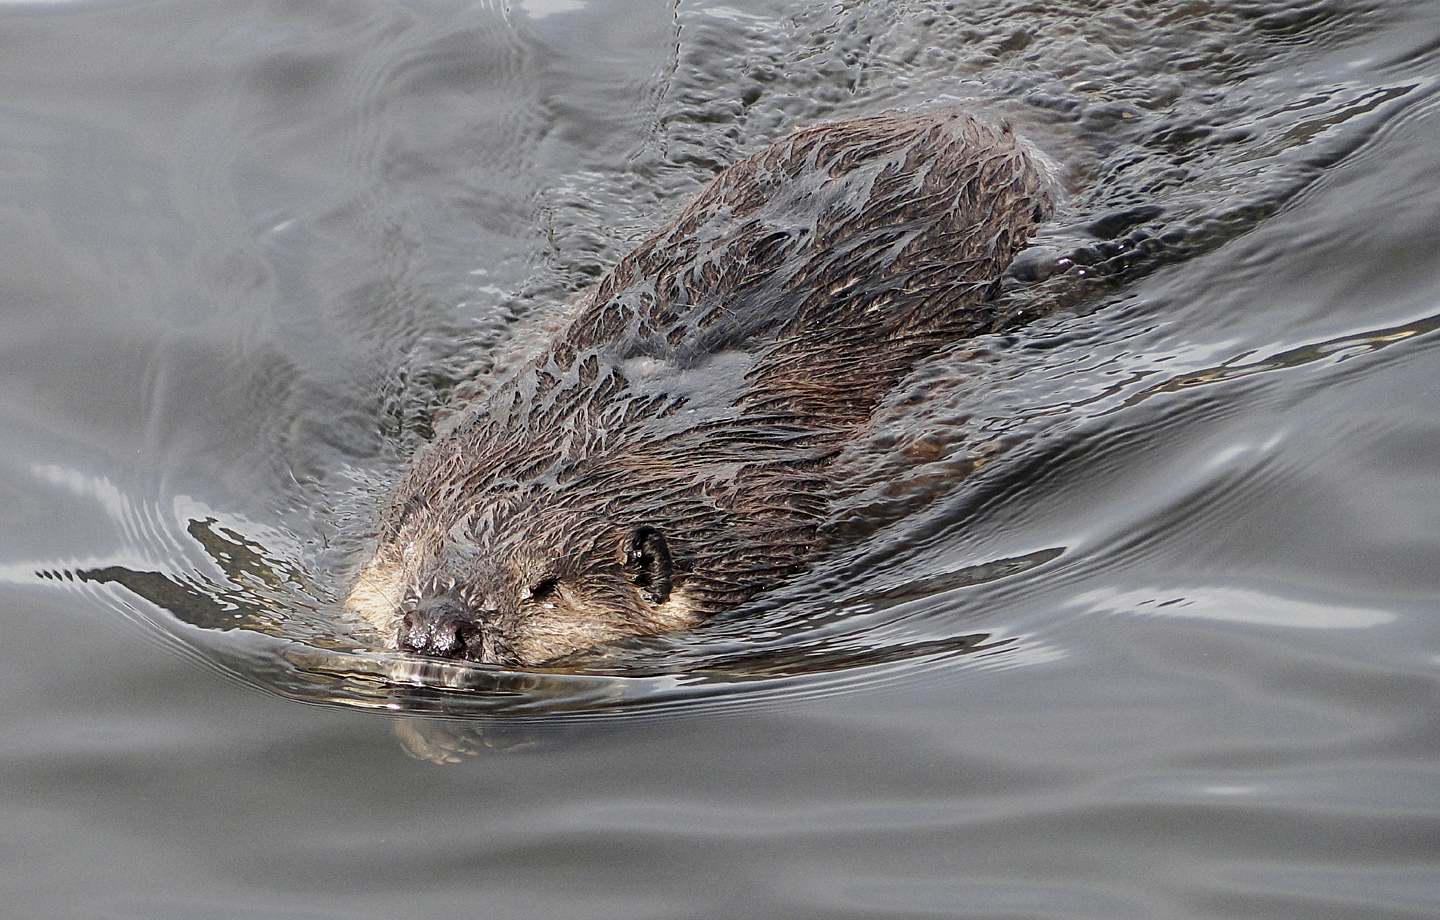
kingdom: Animalia
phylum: Chordata
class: Mammalia
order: Rodentia
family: Castoridae
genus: Castor
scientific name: Castor canadensis
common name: American beaver
